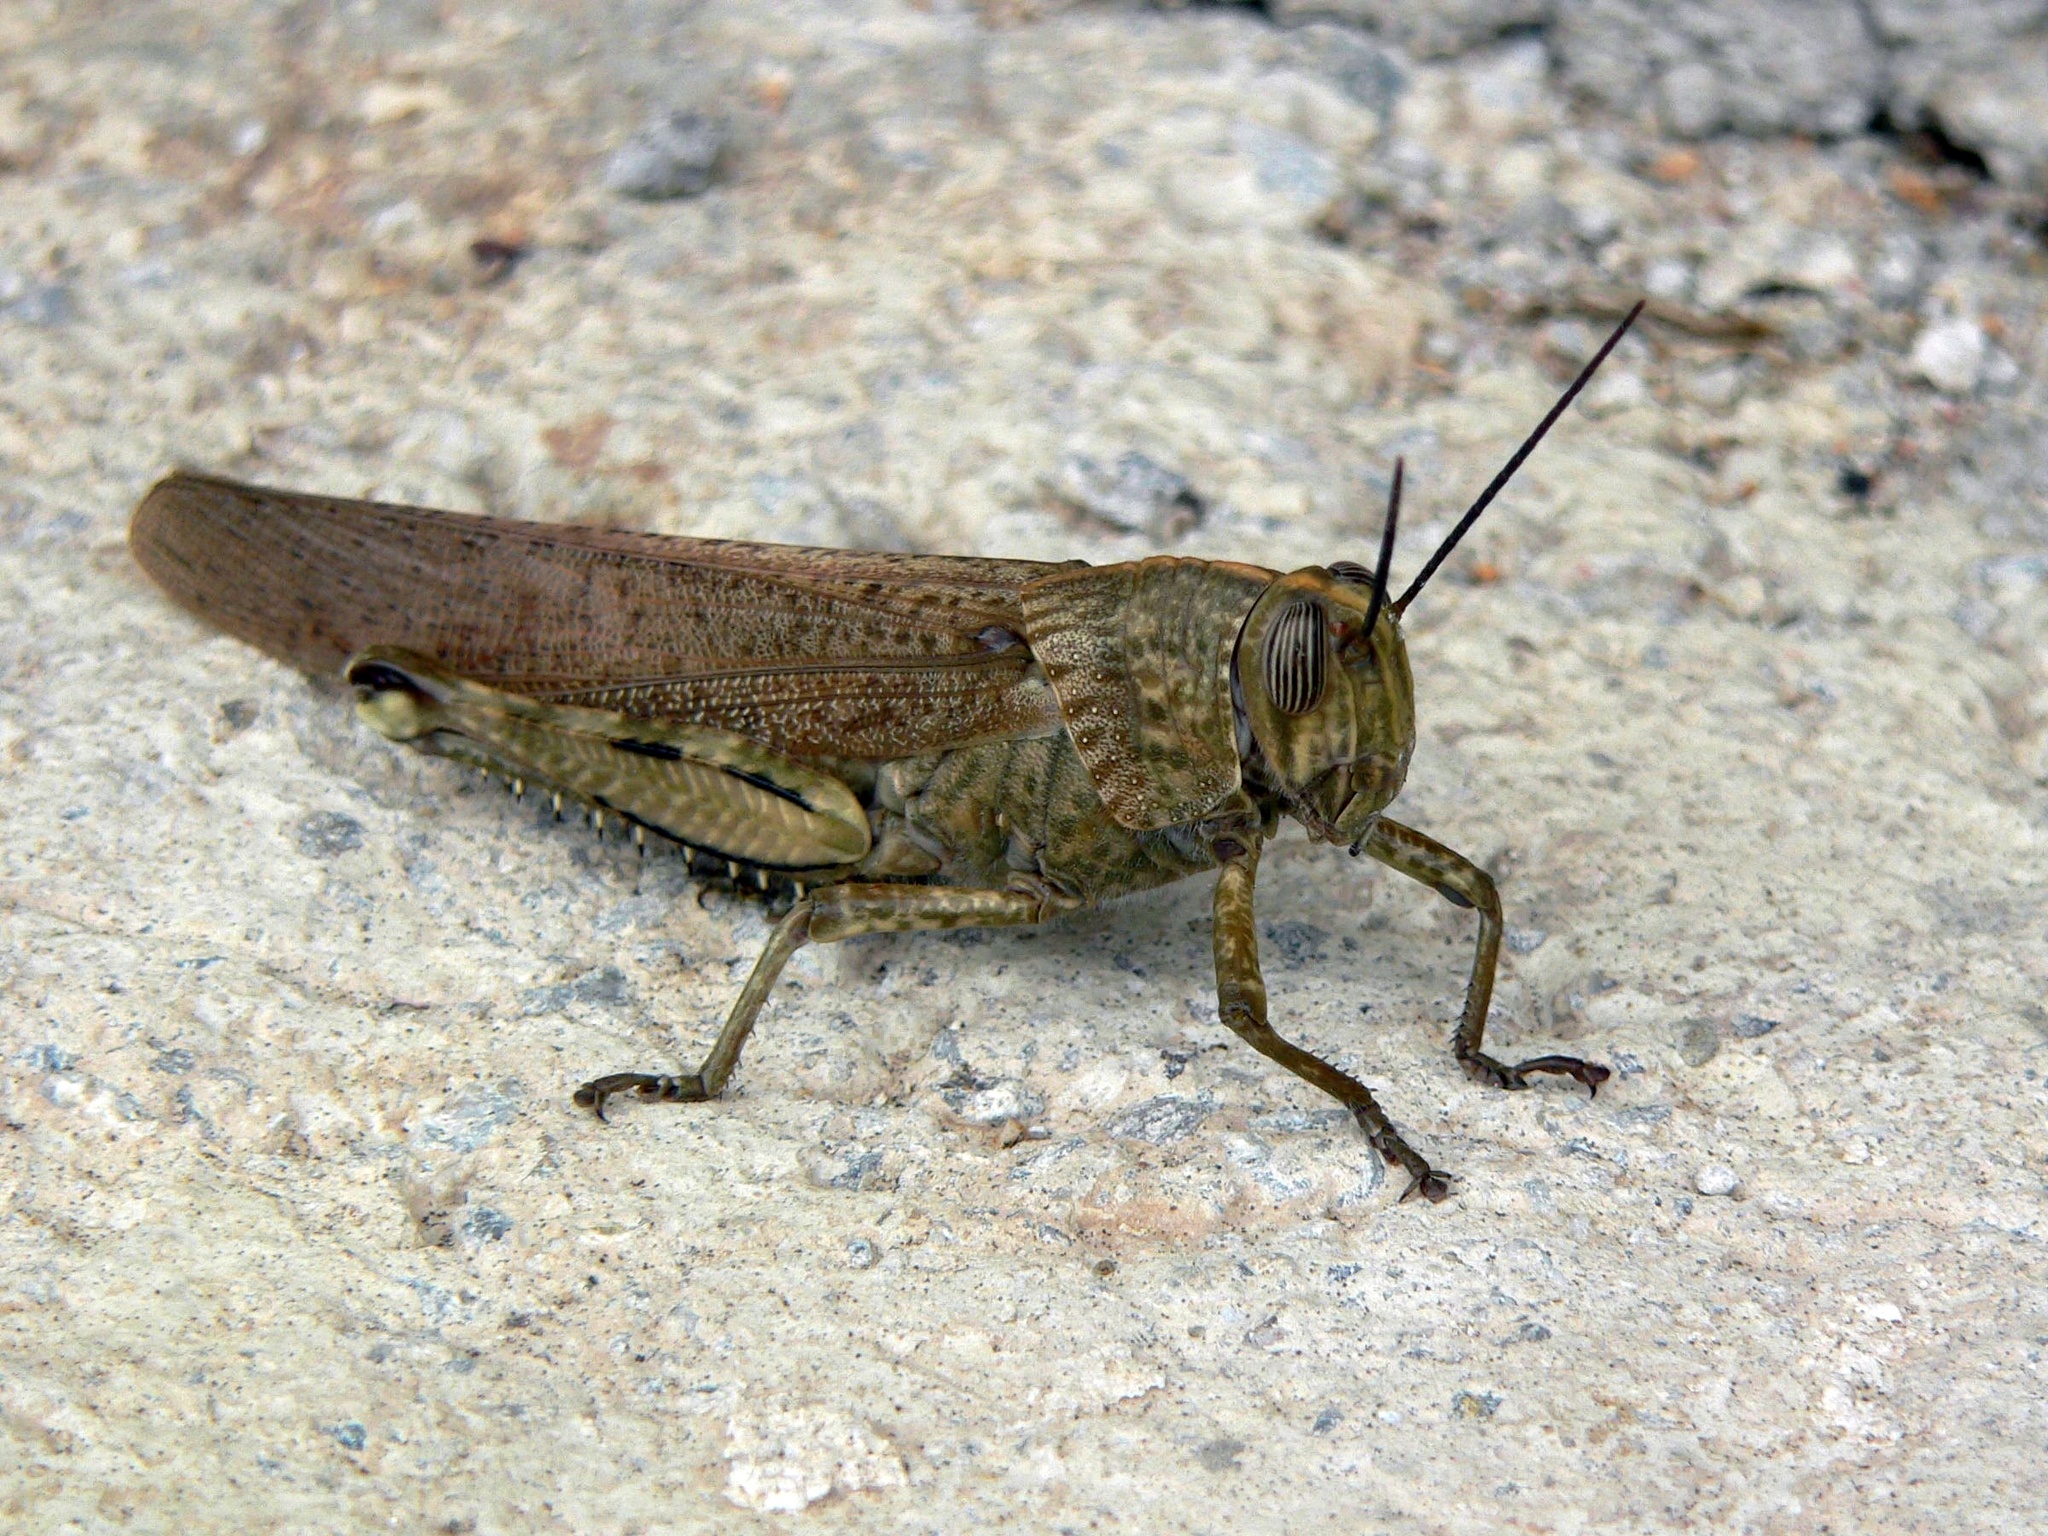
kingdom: Animalia
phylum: Arthropoda
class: Insecta
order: Orthoptera
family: Acrididae
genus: Anacridium
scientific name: Anacridium aegyptium
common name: Egyptian grasshopper
